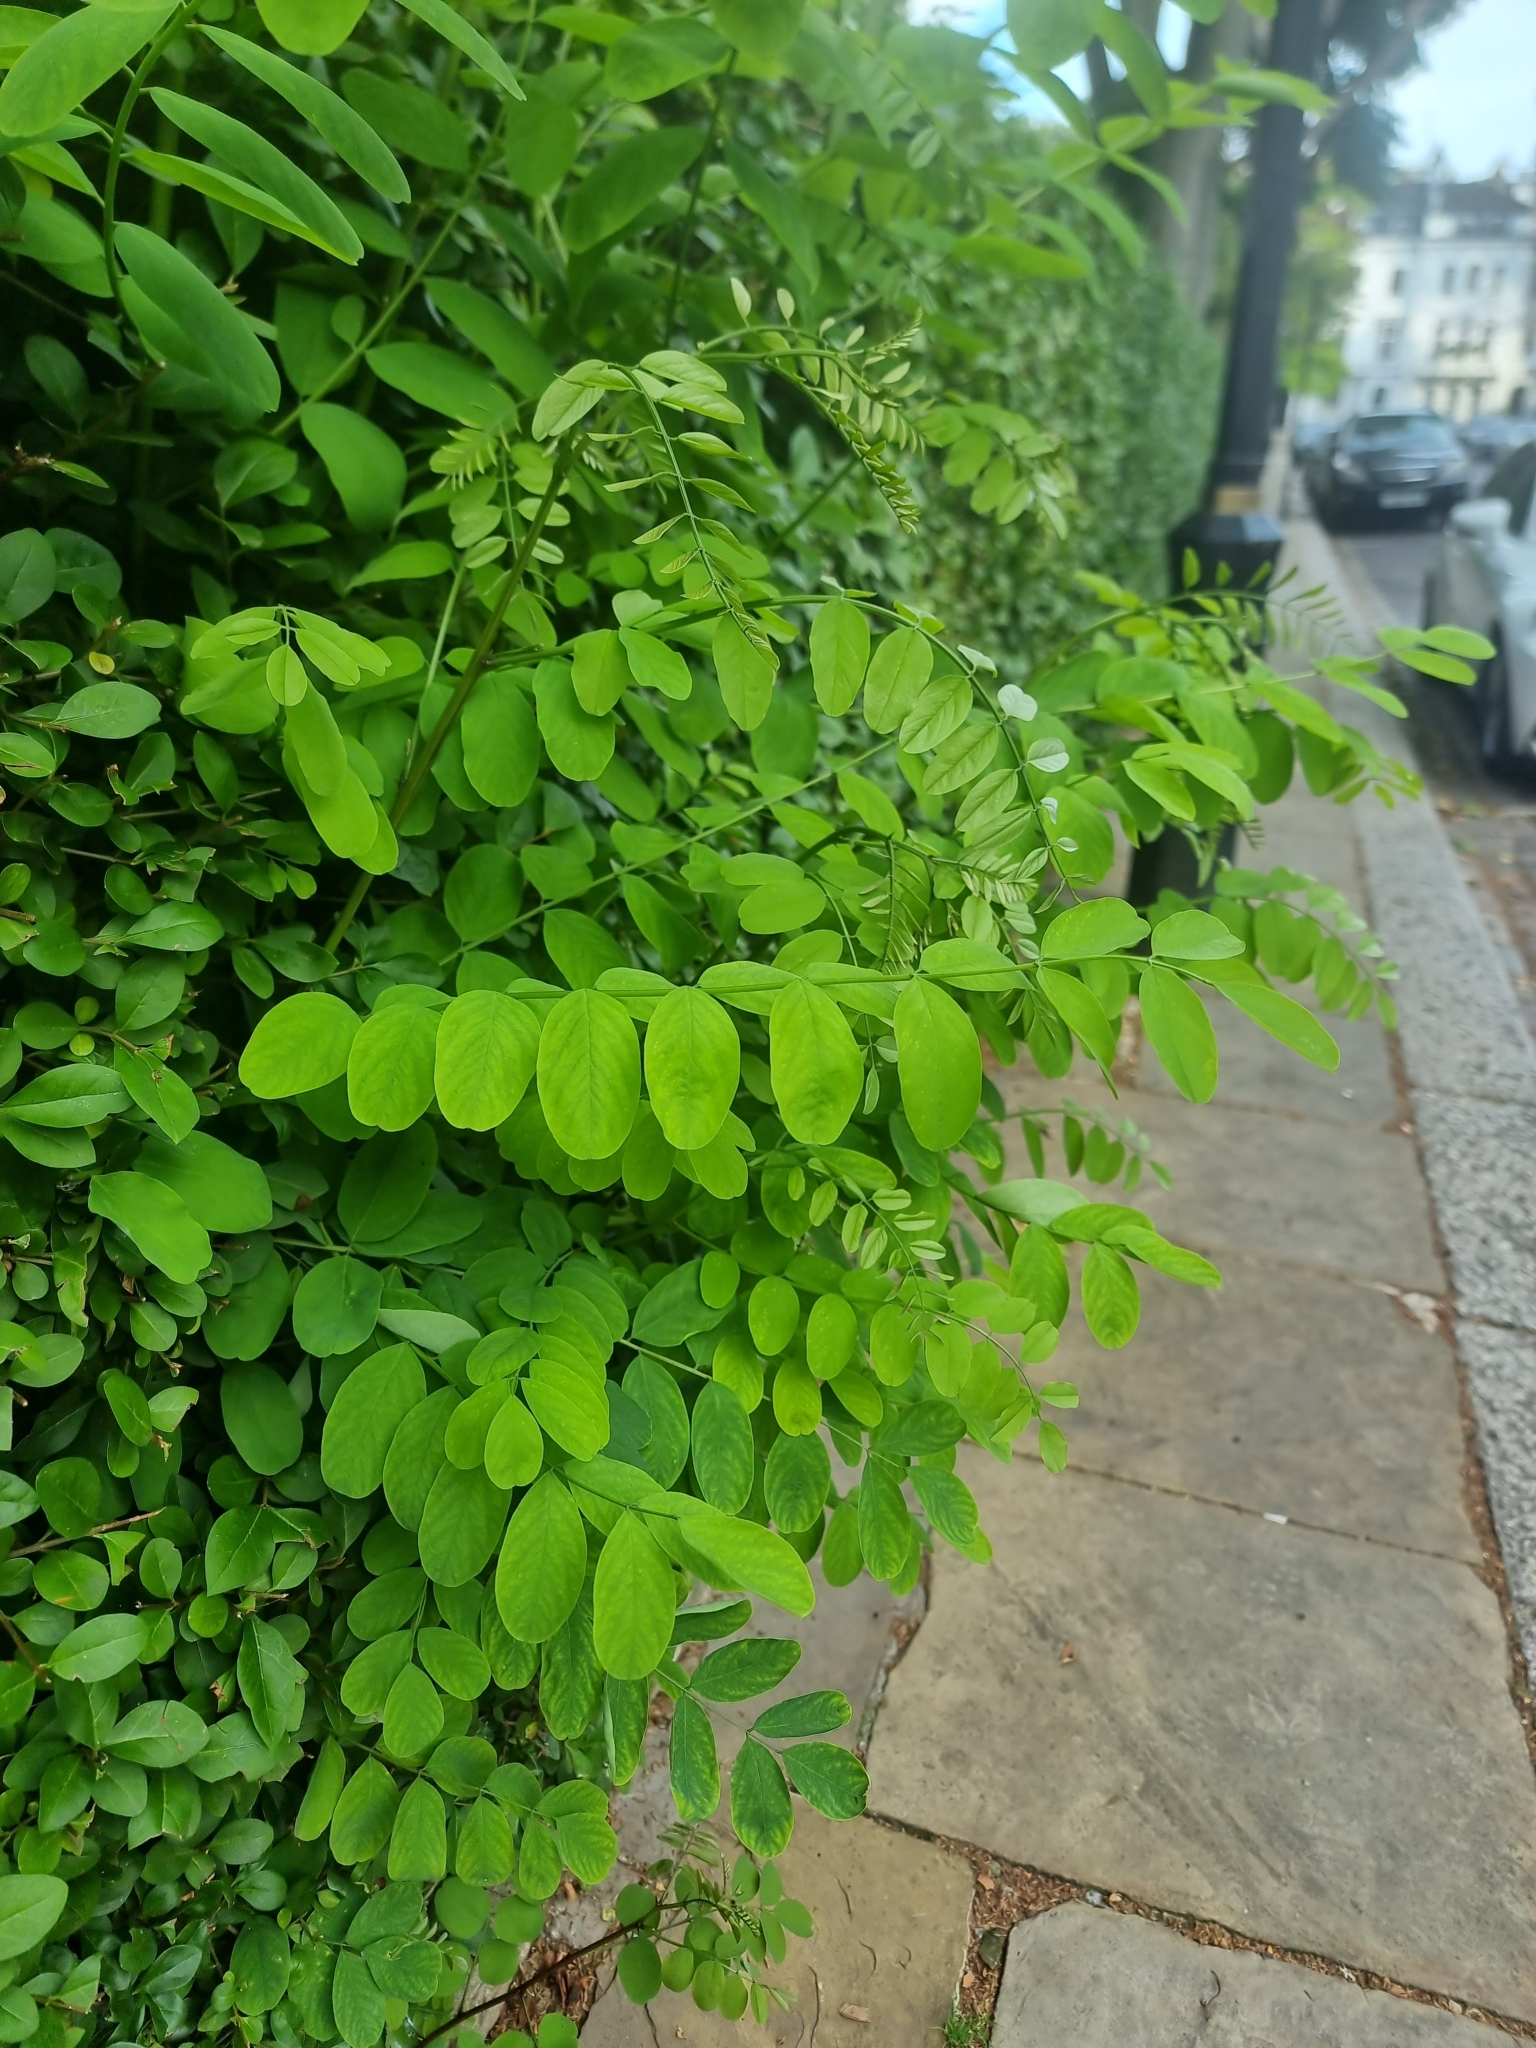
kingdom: Plantae
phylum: Tracheophyta
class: Magnoliopsida
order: Fabales
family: Fabaceae
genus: Robinia
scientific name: Robinia pseudoacacia
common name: Black locust
